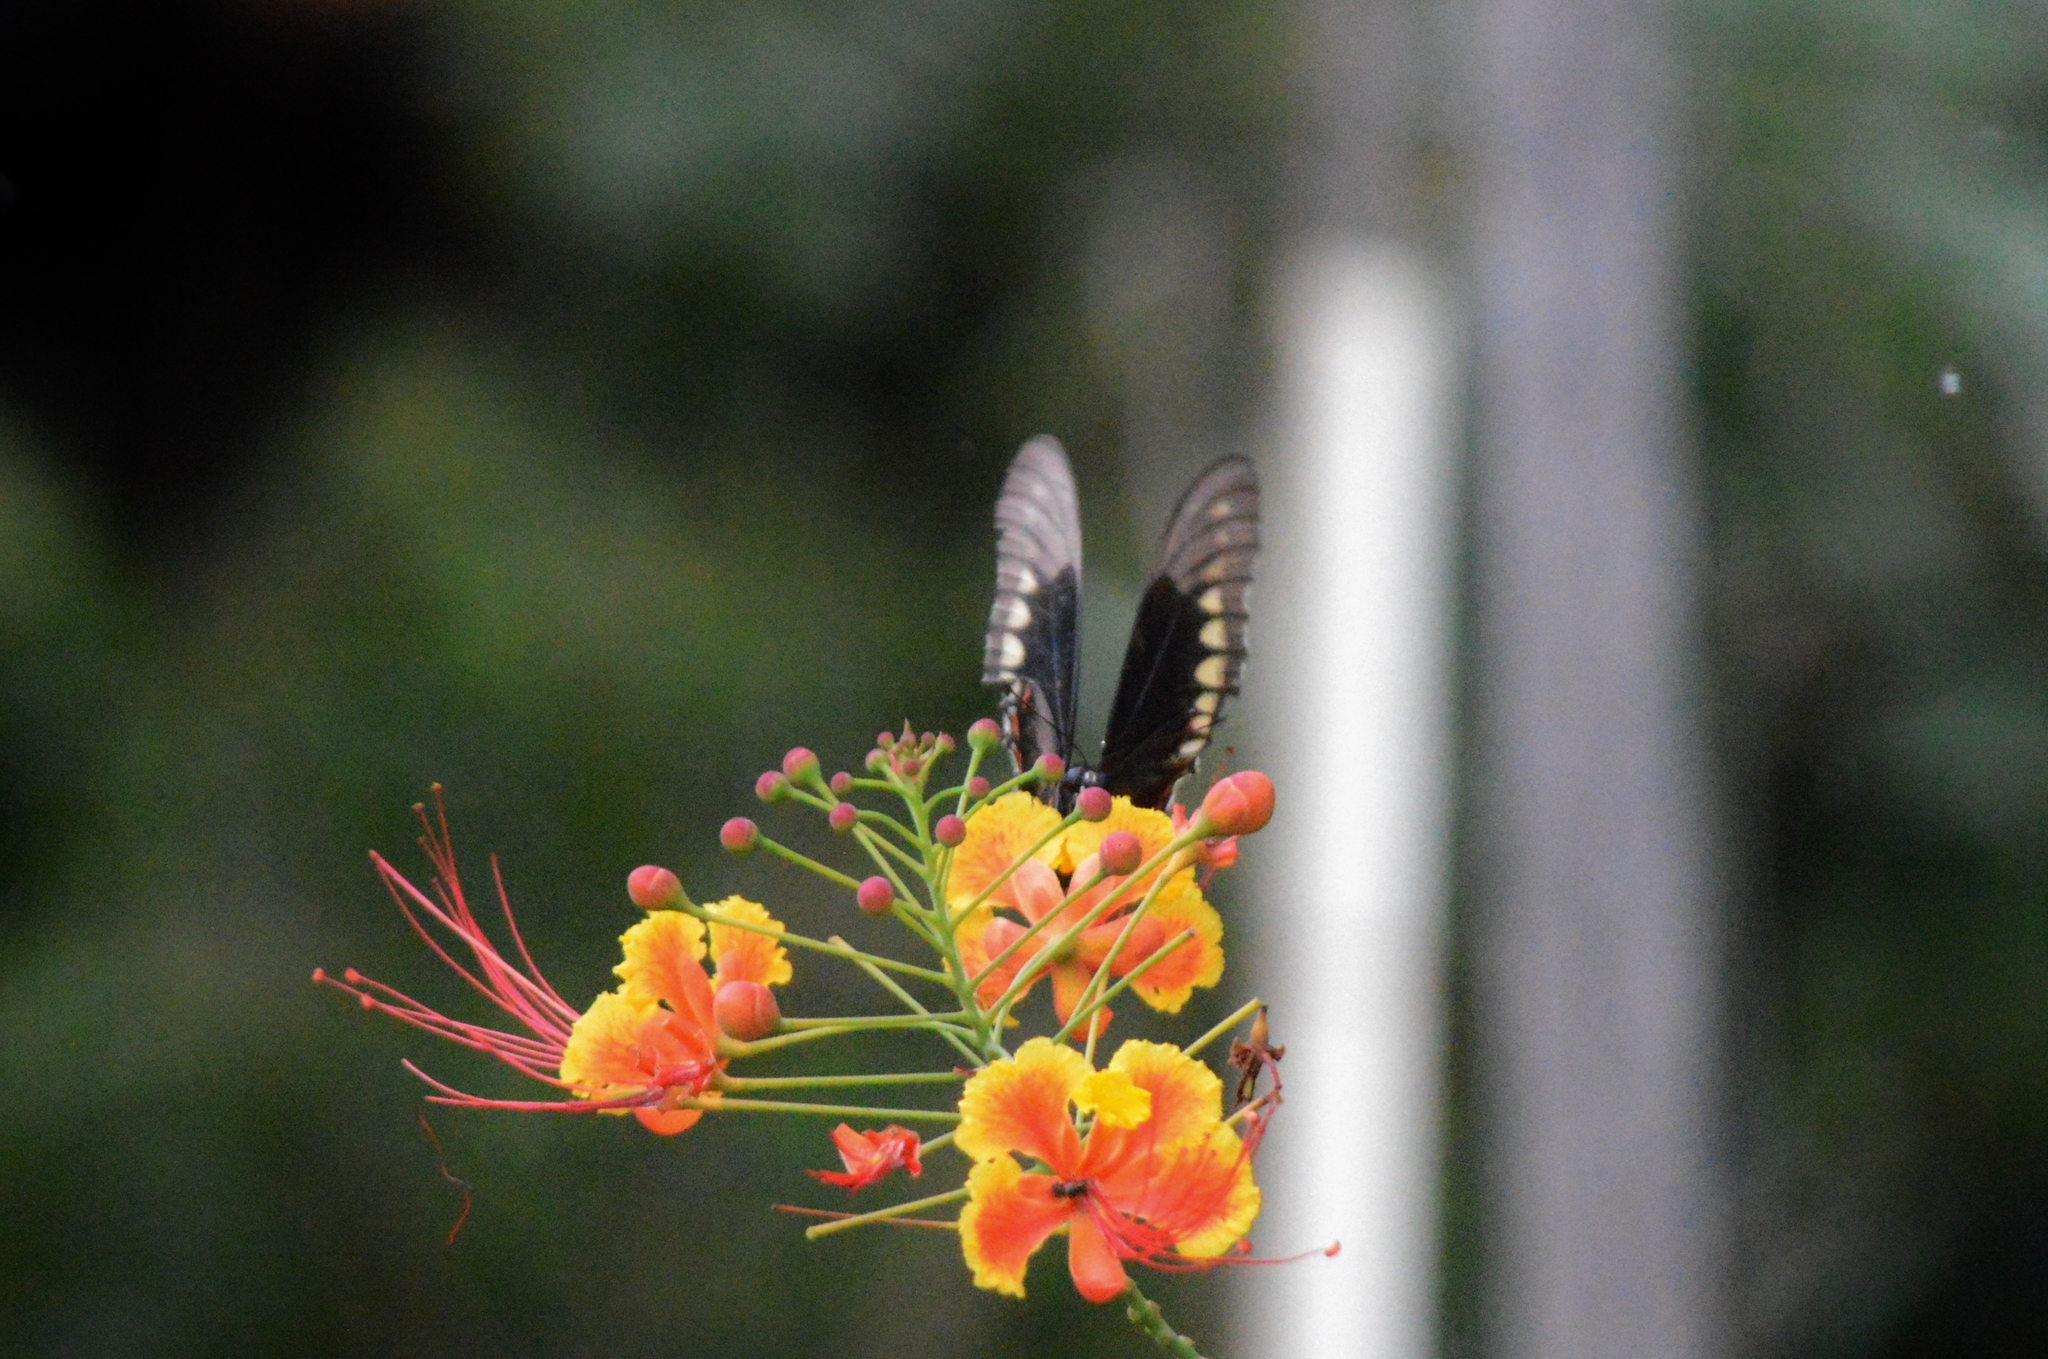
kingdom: Animalia
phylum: Arthropoda
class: Insecta
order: Lepidoptera
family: Papilionidae
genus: Battus
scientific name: Battus polydamas
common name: Polydamas swallowtail
